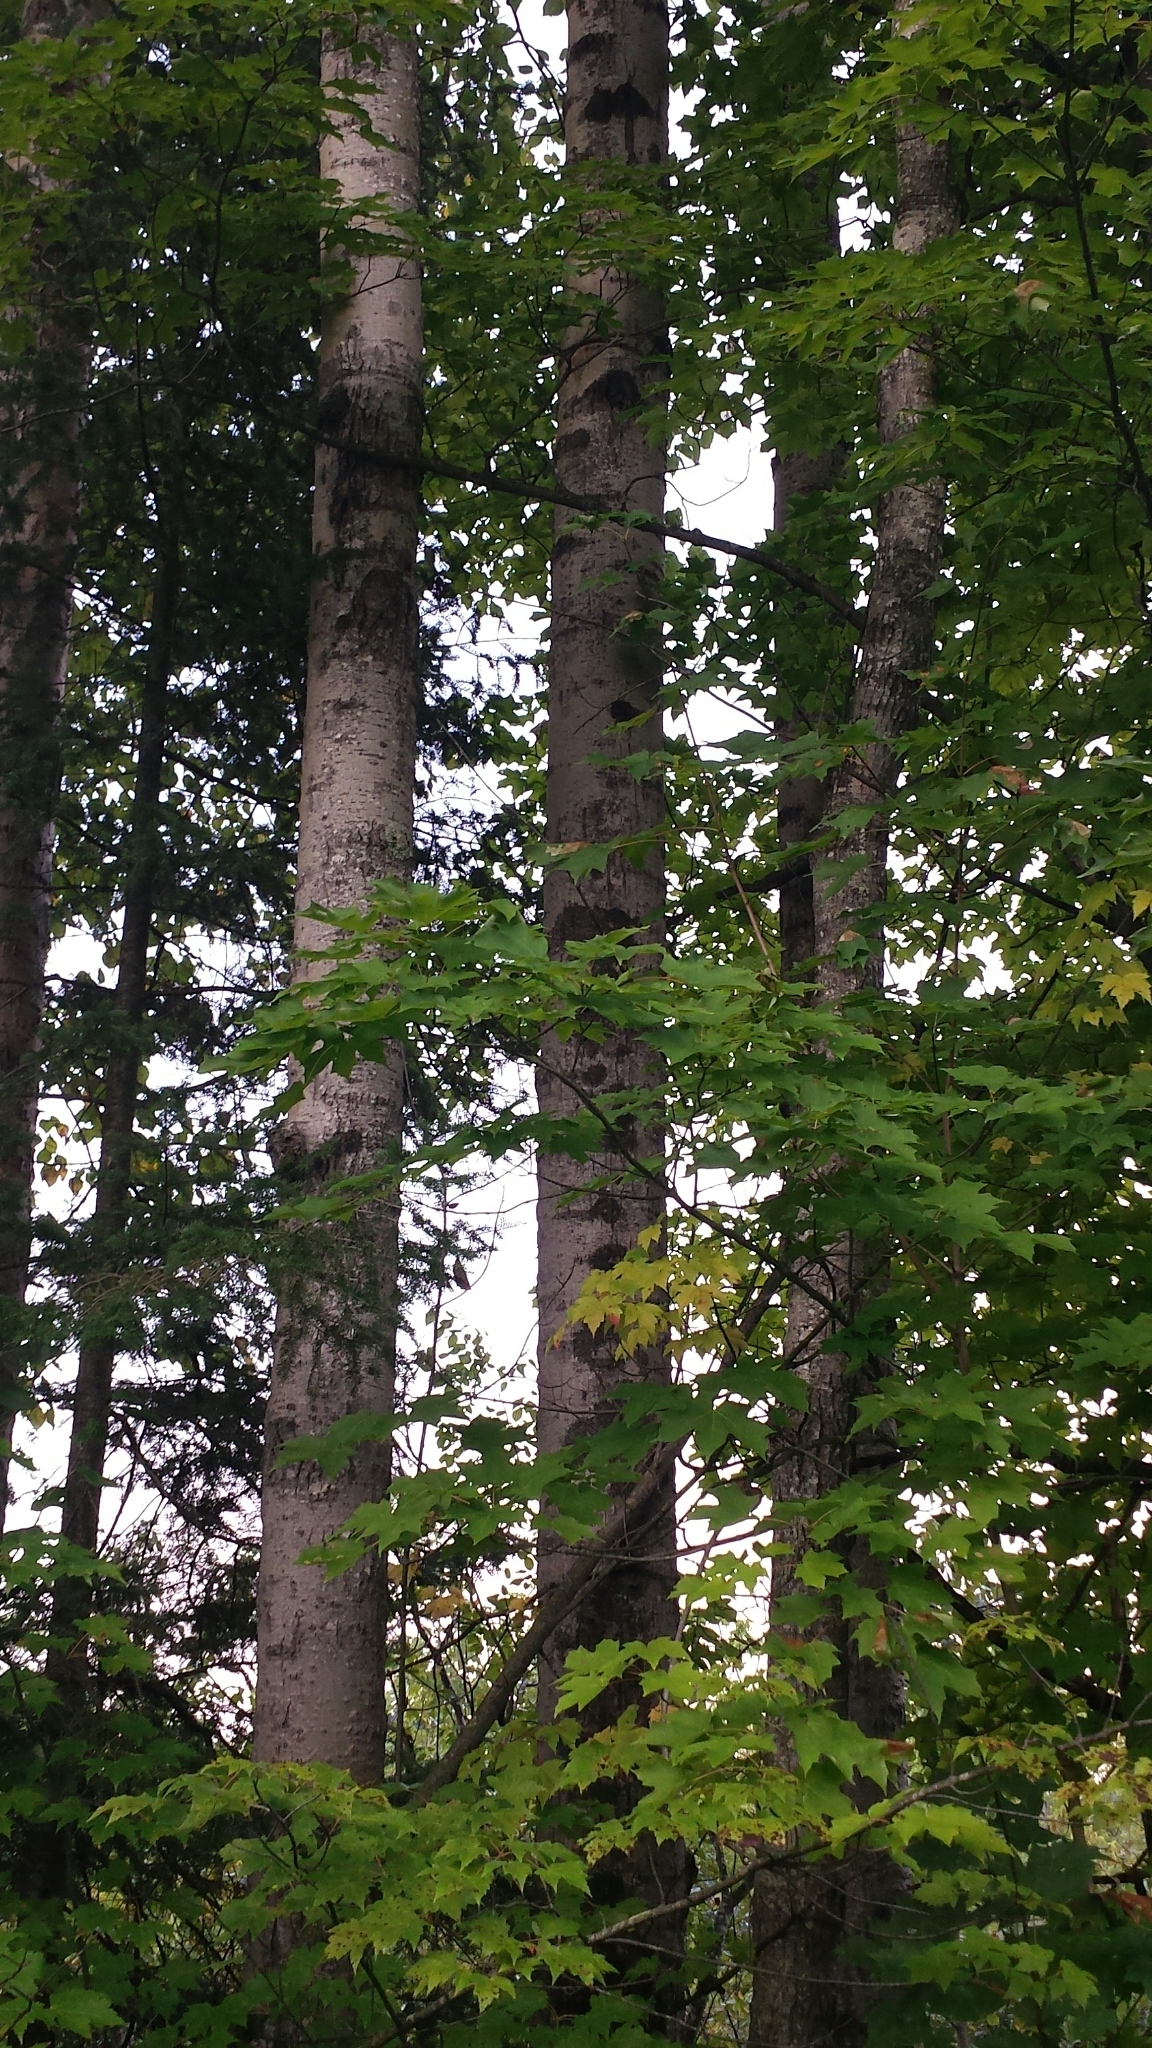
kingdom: Plantae
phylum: Tracheophyta
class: Magnoliopsida
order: Malpighiales
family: Salicaceae
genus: Populus
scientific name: Populus grandidentata
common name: Bigtooth aspen
